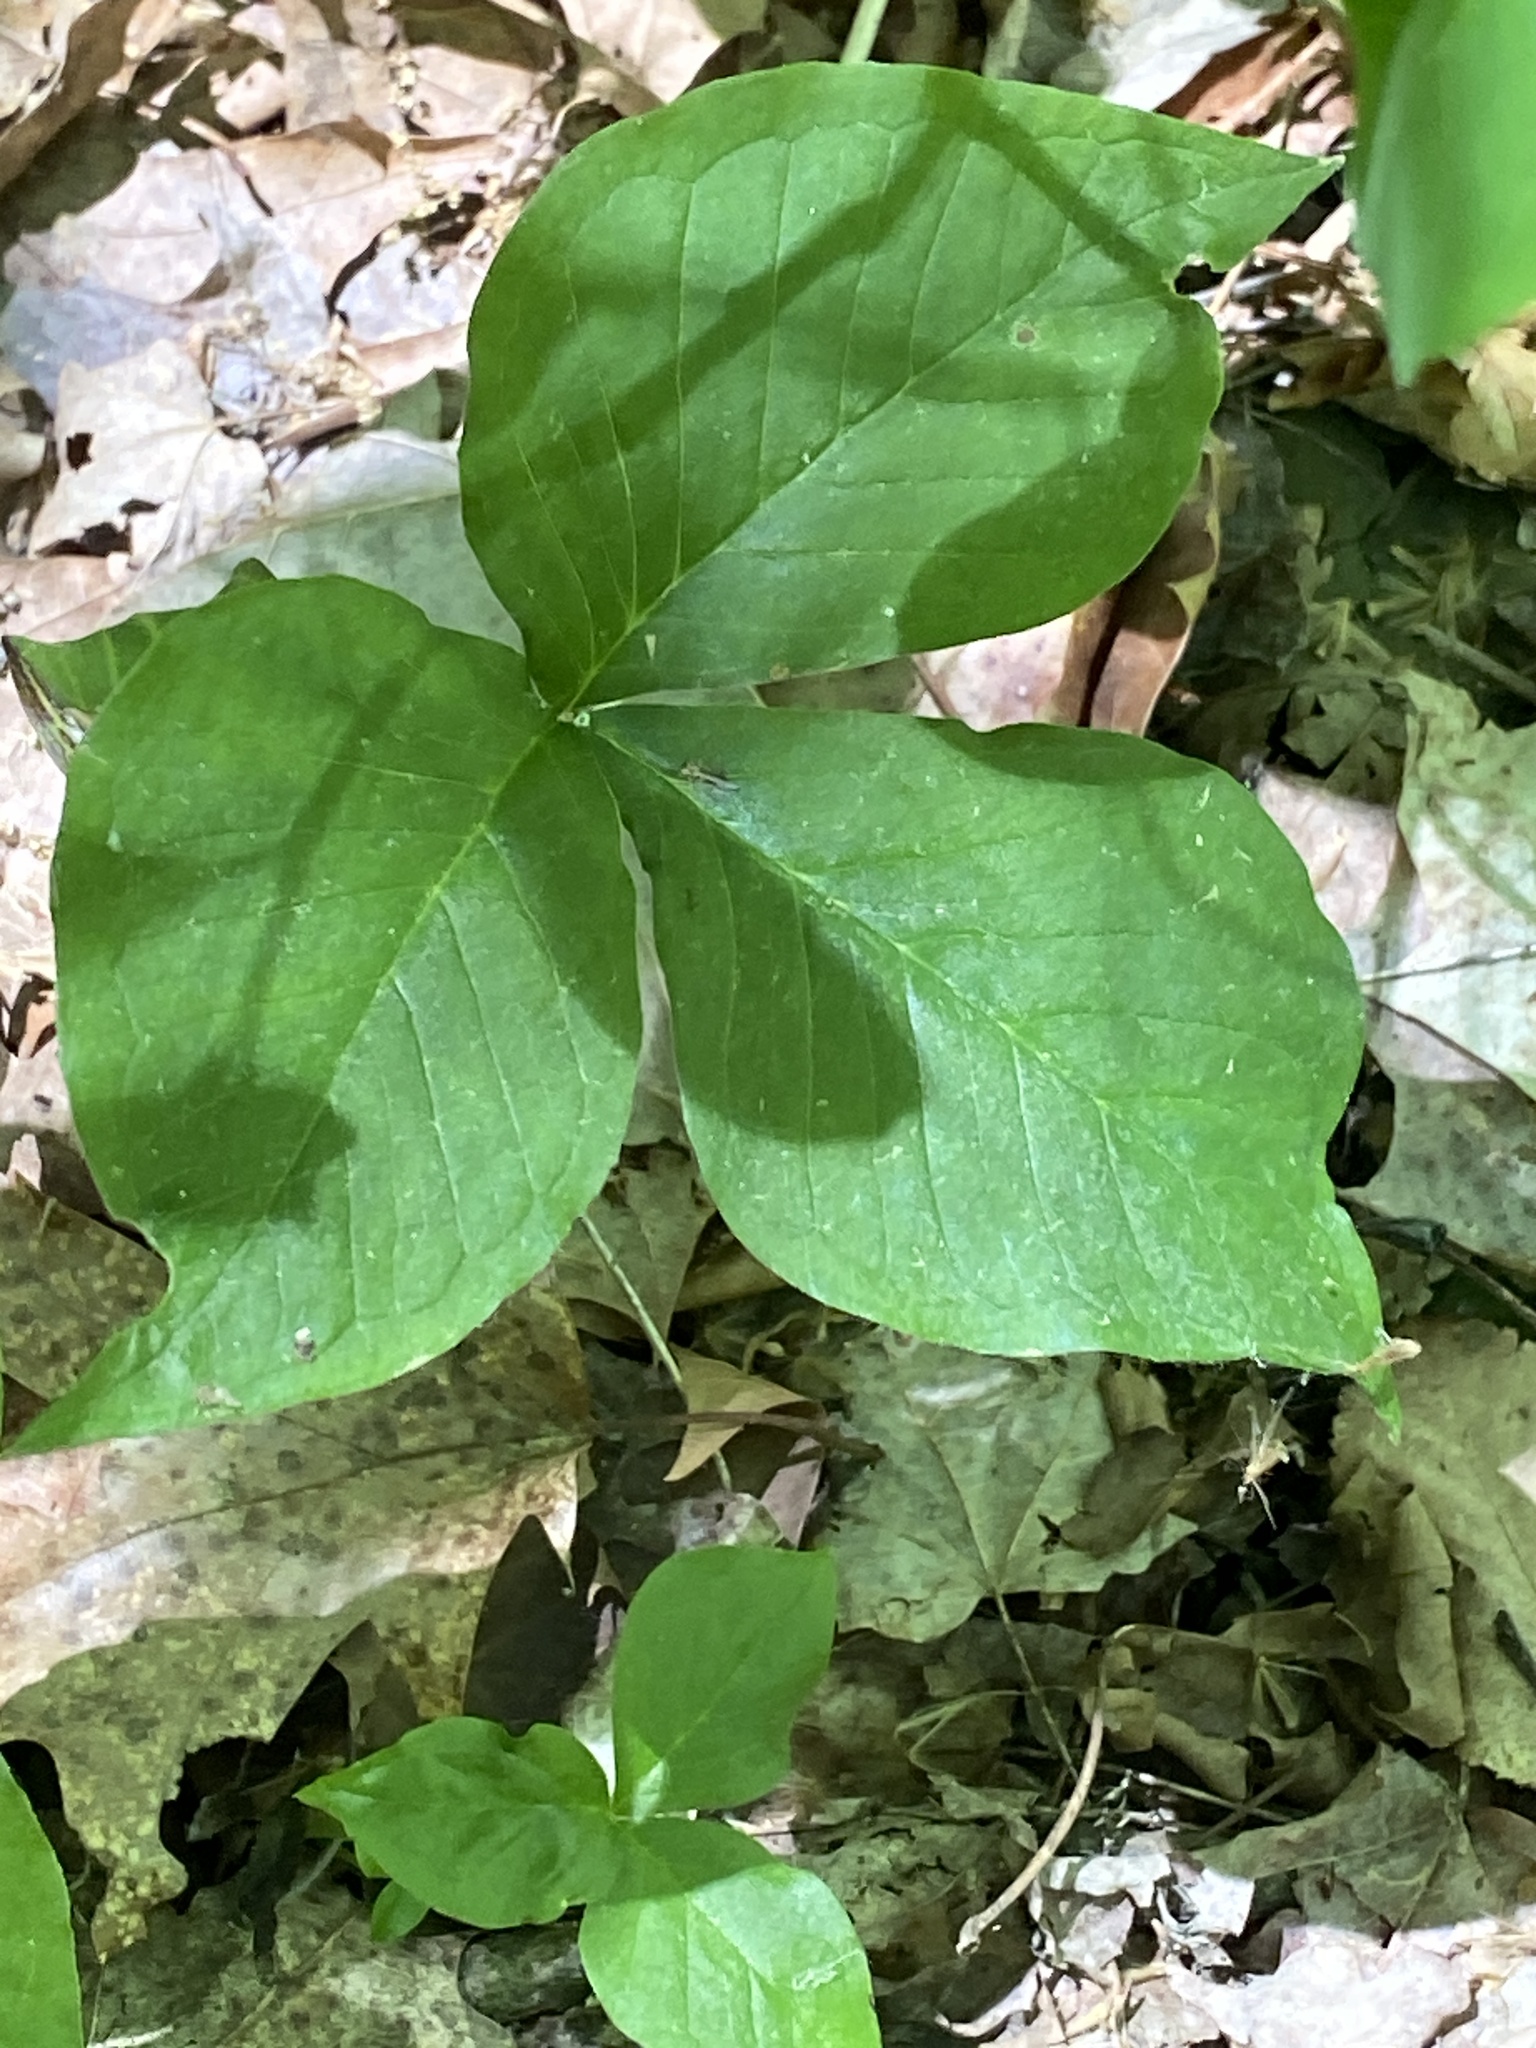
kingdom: Plantae
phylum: Tracheophyta
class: Liliopsida
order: Alismatales
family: Araceae
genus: Arisaema
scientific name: Arisaema triphyllum
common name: Jack-in-the-pulpit
